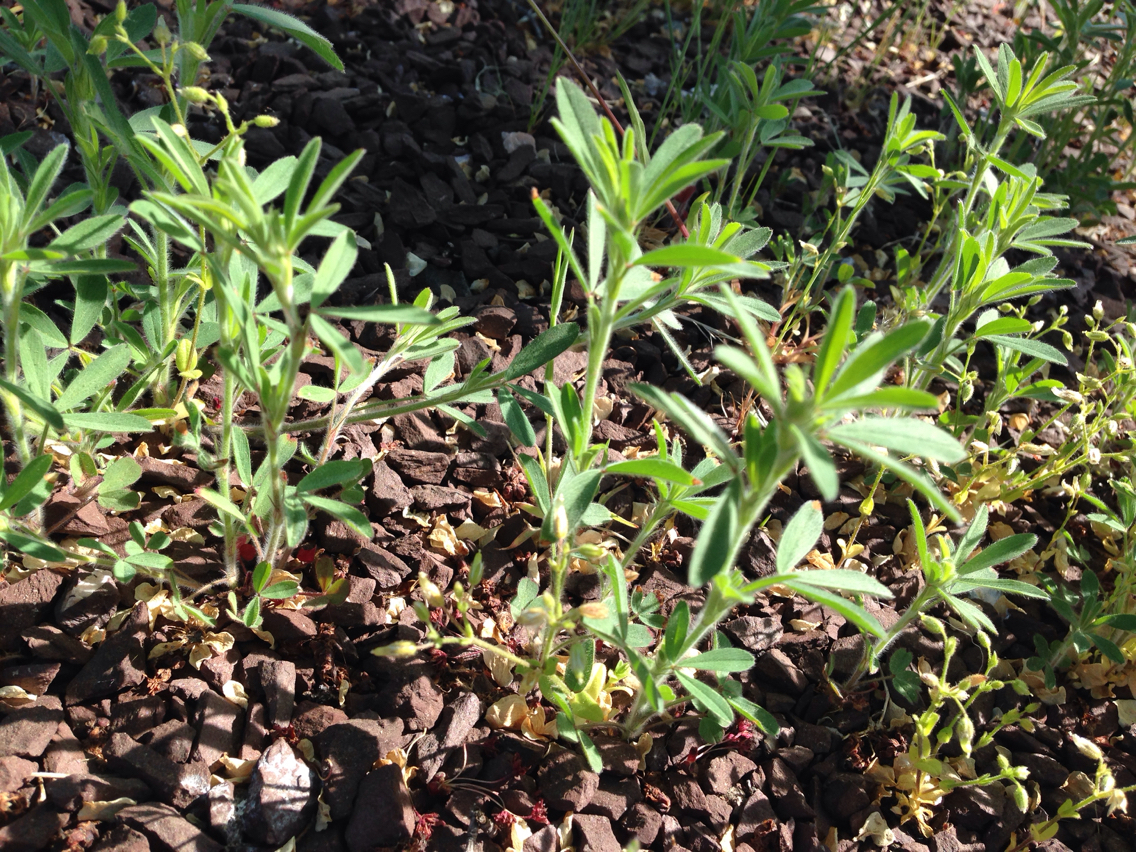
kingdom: Plantae
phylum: Tracheophyta
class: Magnoliopsida
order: Fabales
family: Fabaceae
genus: Trifolium
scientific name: Trifolium arvense
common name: Hare's-foot clover
